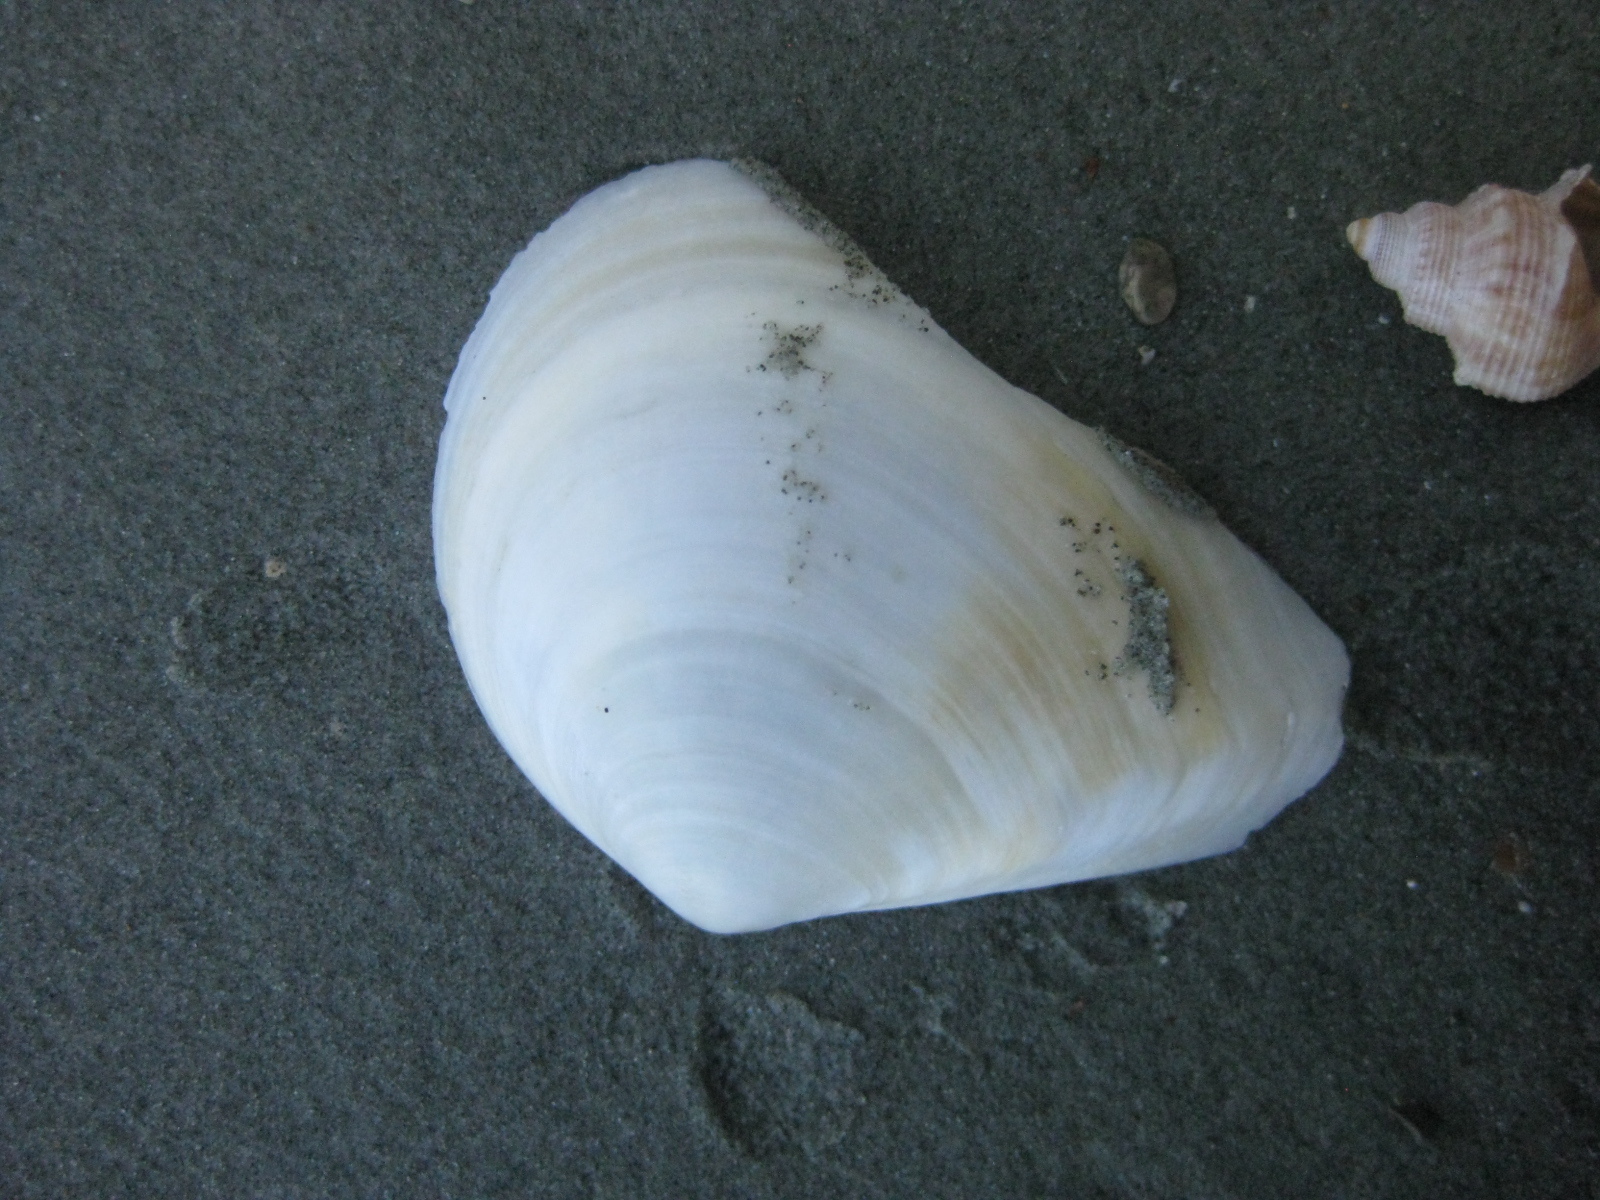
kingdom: Animalia
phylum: Mollusca
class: Bivalvia
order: Cardiida
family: Tellinidae
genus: Macomona
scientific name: Macomona liliana
